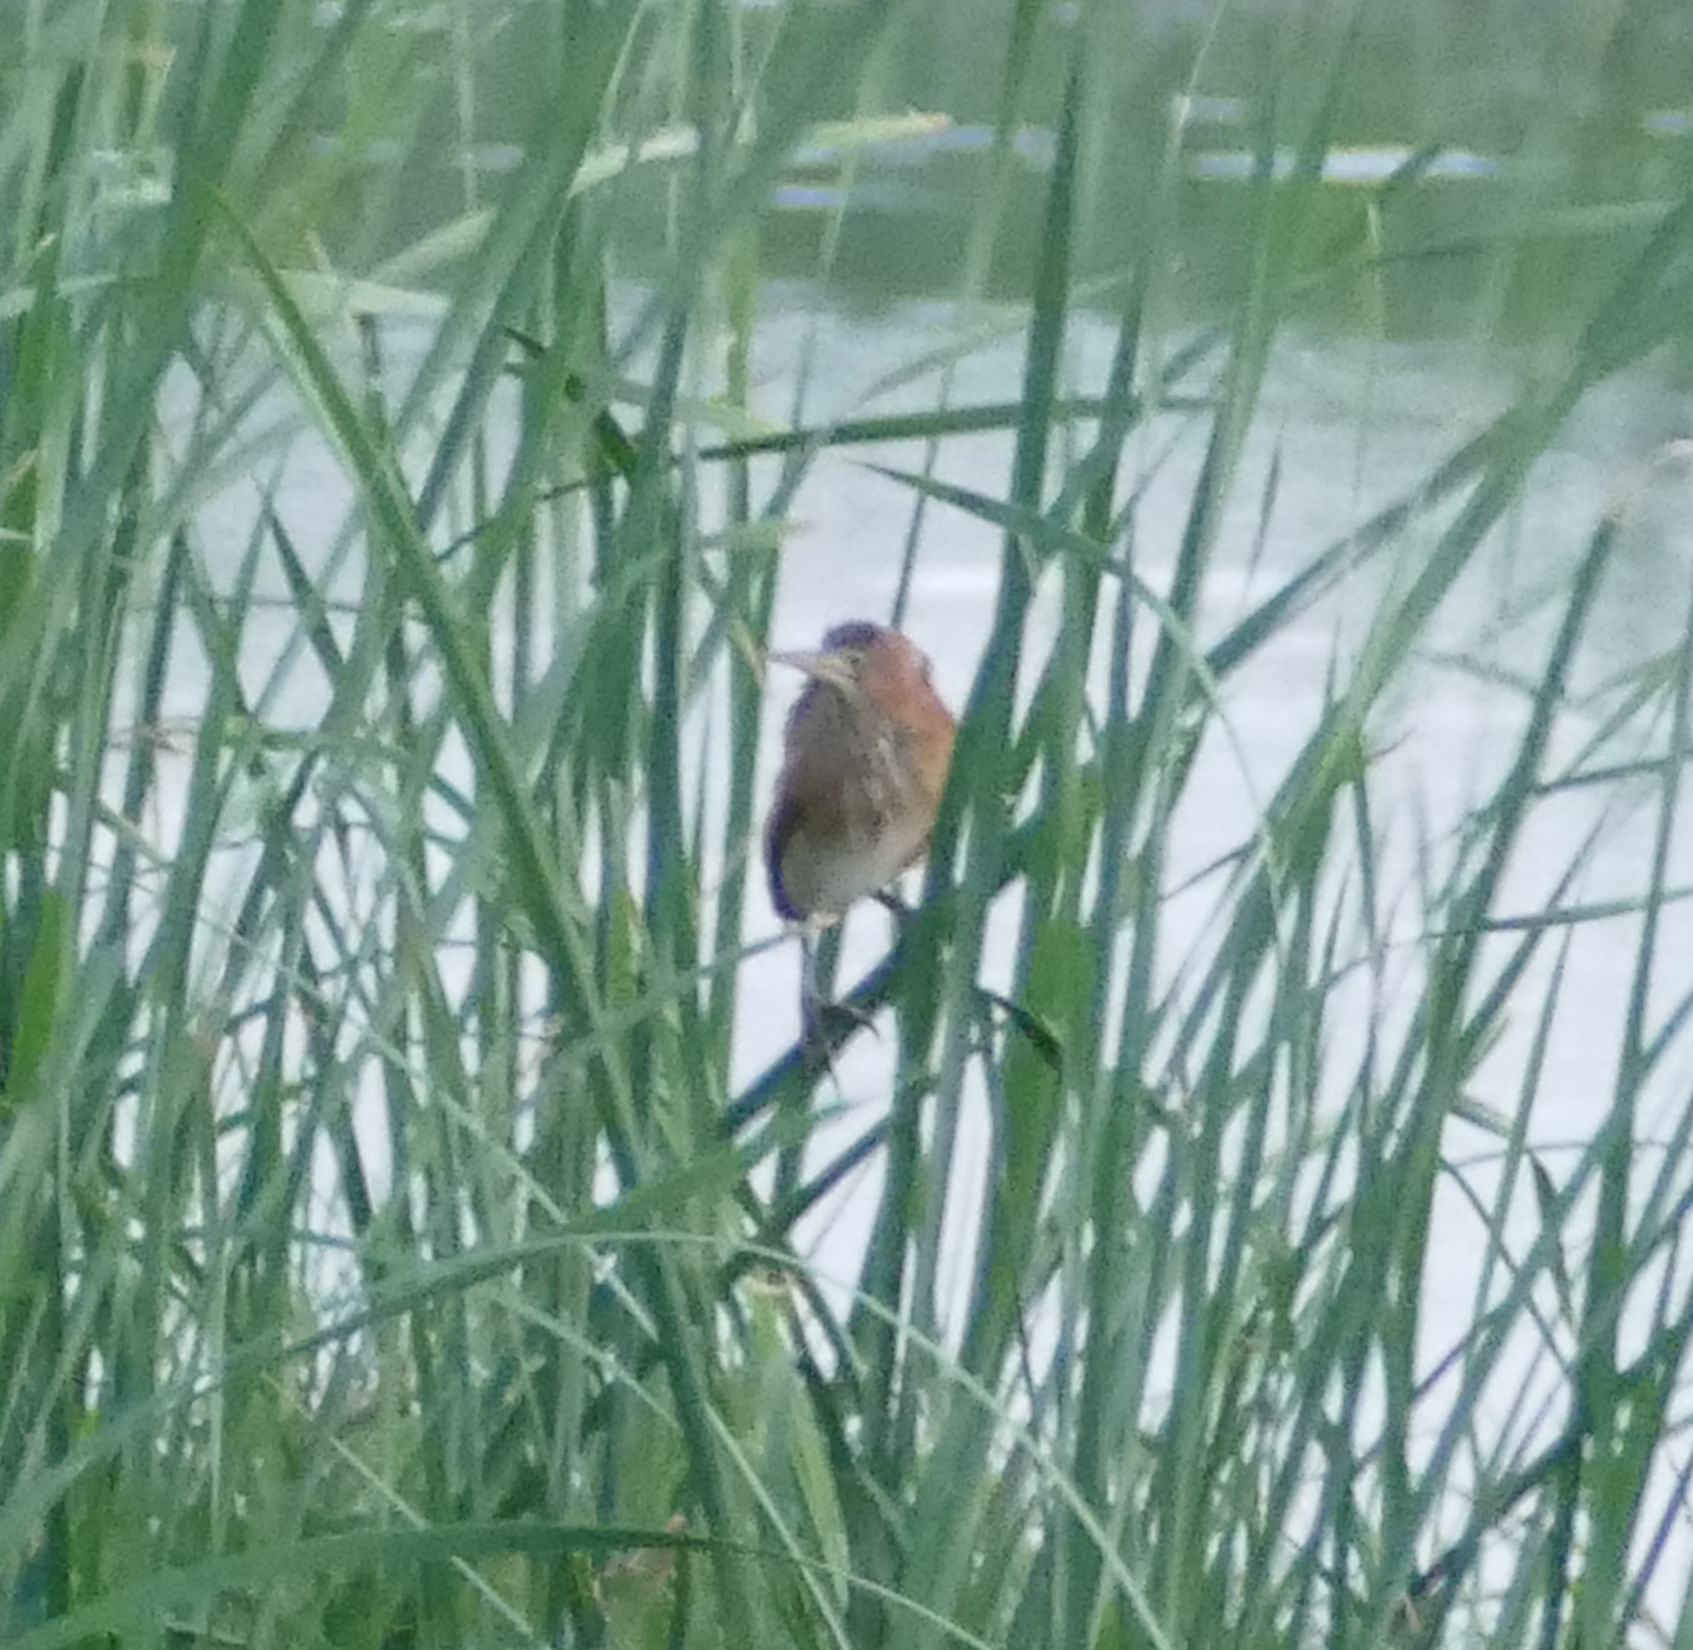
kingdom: Animalia
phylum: Chordata
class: Aves
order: Pelecaniformes
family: Ardeidae
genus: Ixobrychus
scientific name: Ixobrychus exilis
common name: Least bittern
